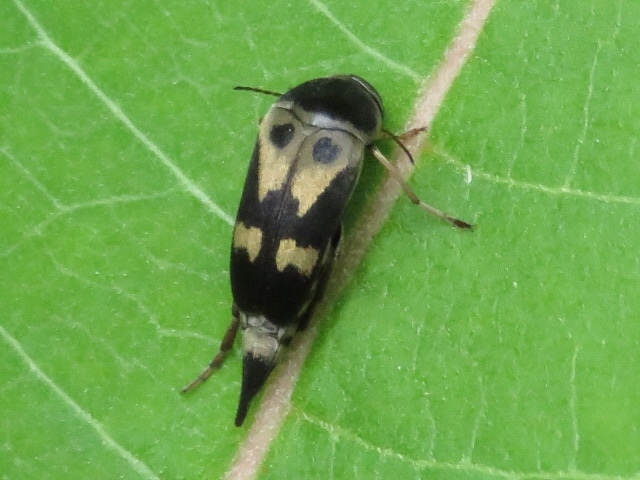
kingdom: Animalia
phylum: Arthropoda
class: Insecta
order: Coleoptera
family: Mordellidae
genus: Glipa
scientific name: Glipa oculata
